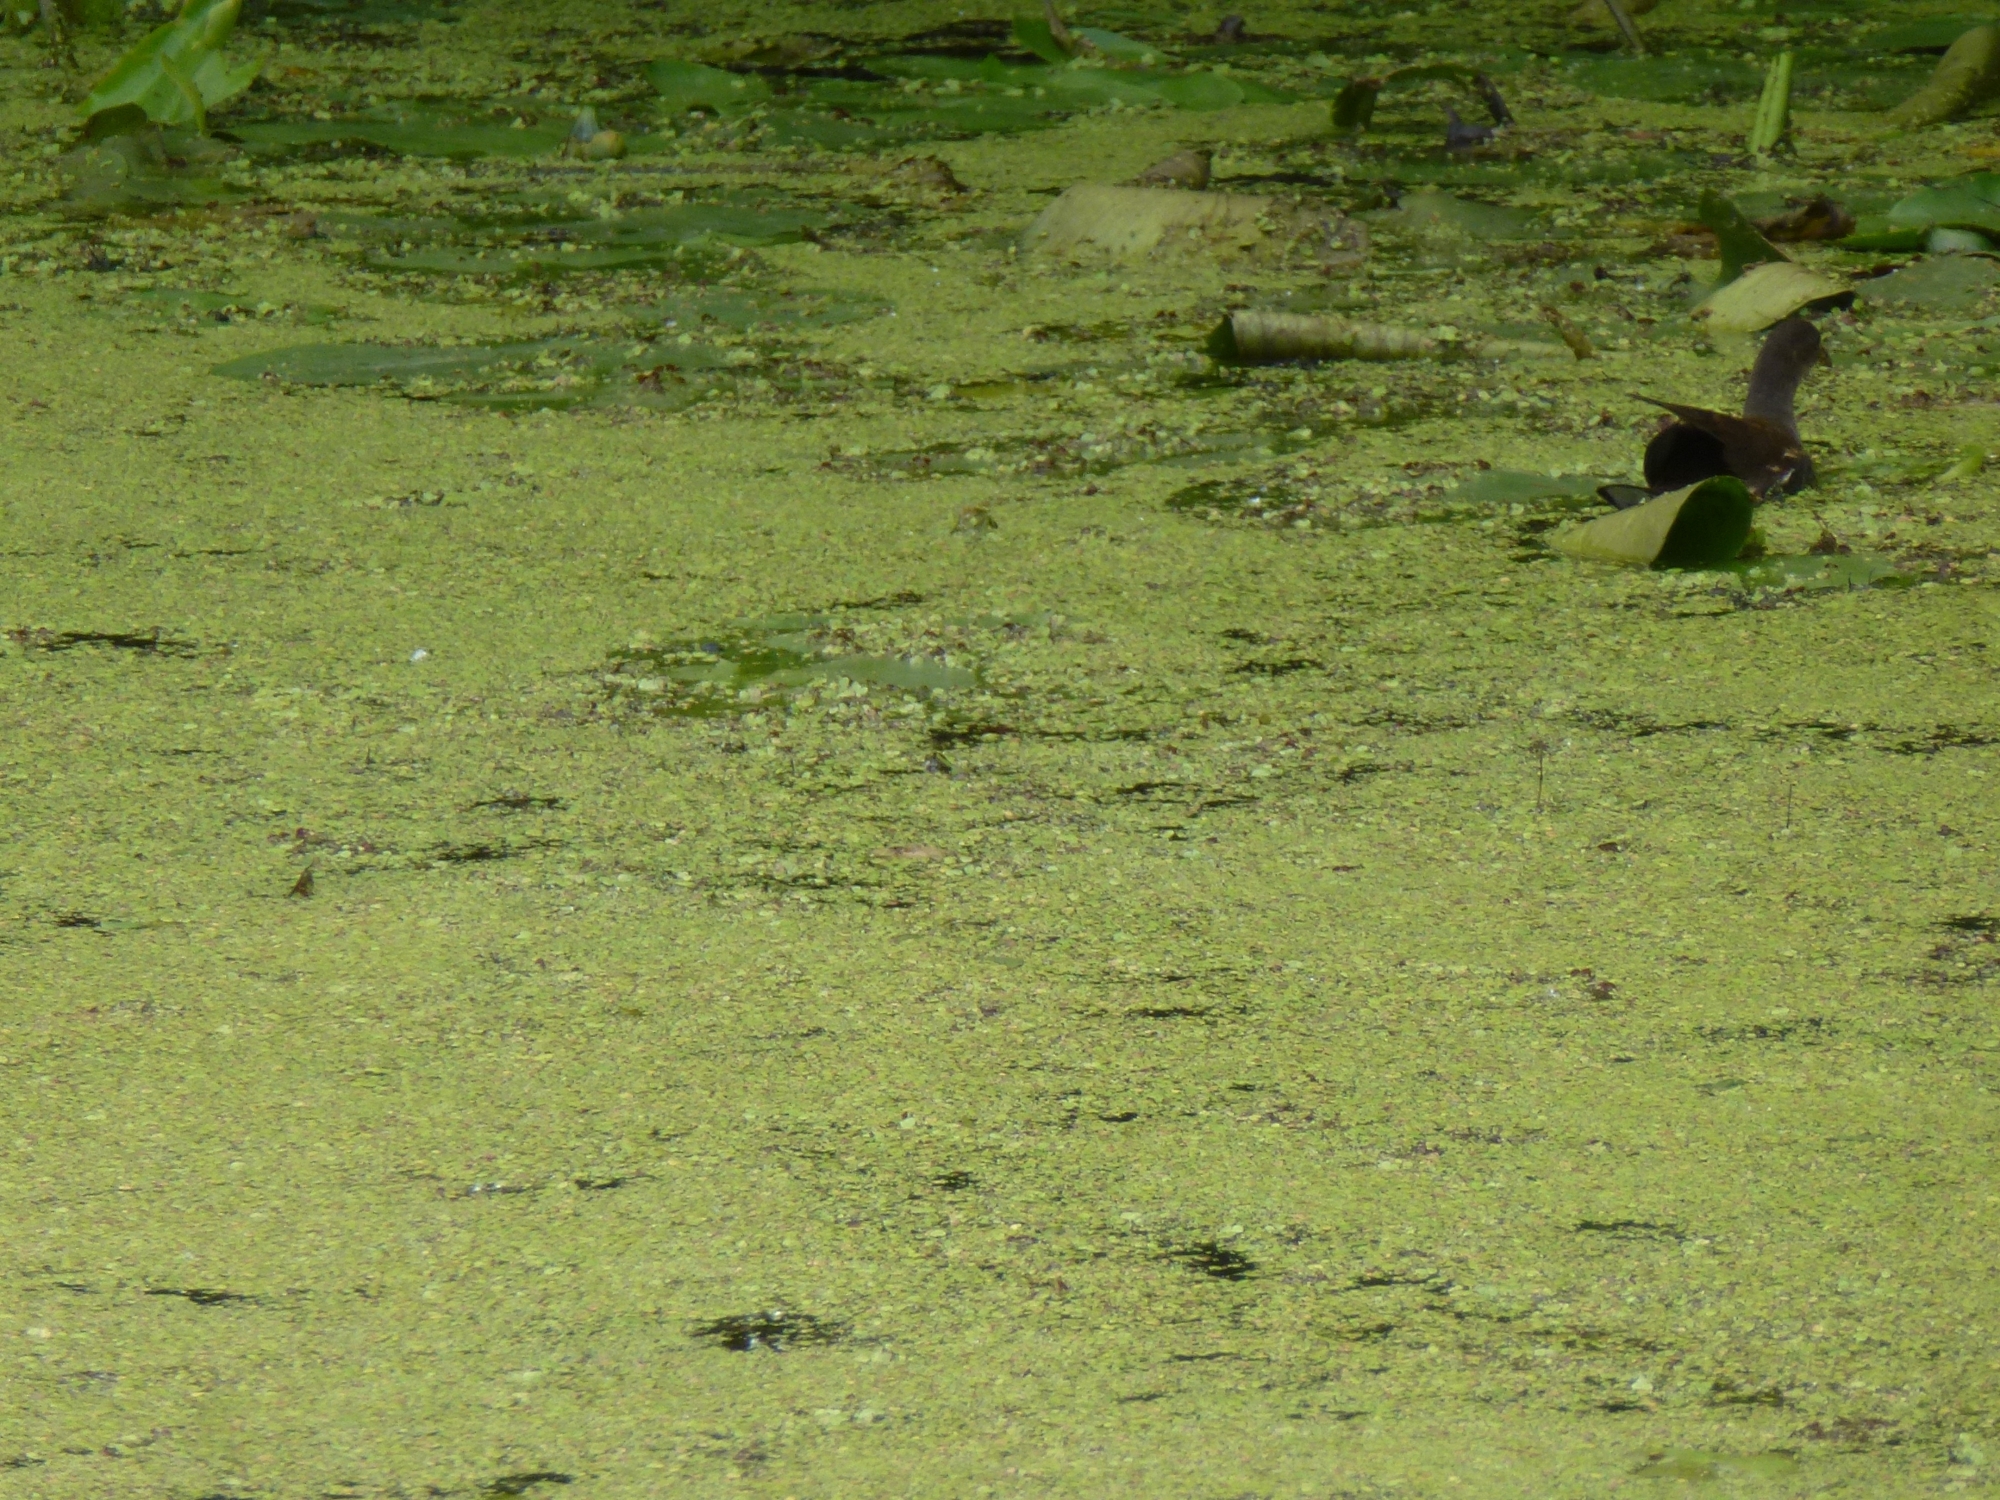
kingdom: Animalia
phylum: Chordata
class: Aves
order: Gruiformes
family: Rallidae
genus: Gallinula
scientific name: Gallinula chloropus
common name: Common moorhen
